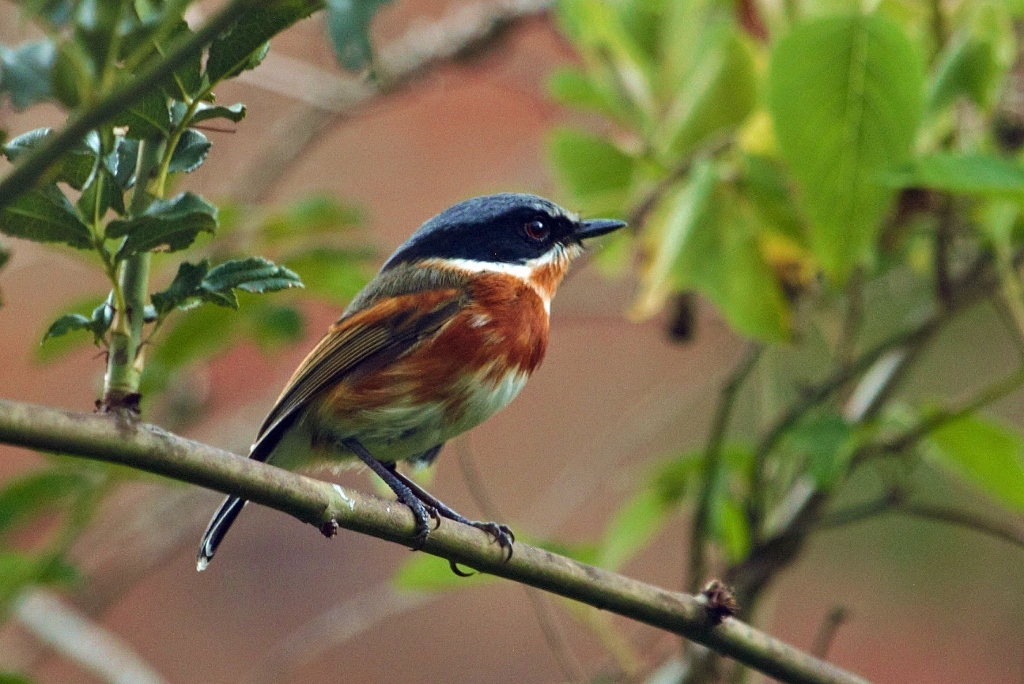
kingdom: Animalia
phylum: Chordata
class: Aves
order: Passeriformes
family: Platysteiridae
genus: Batis
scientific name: Batis capensis
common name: Cape batis
